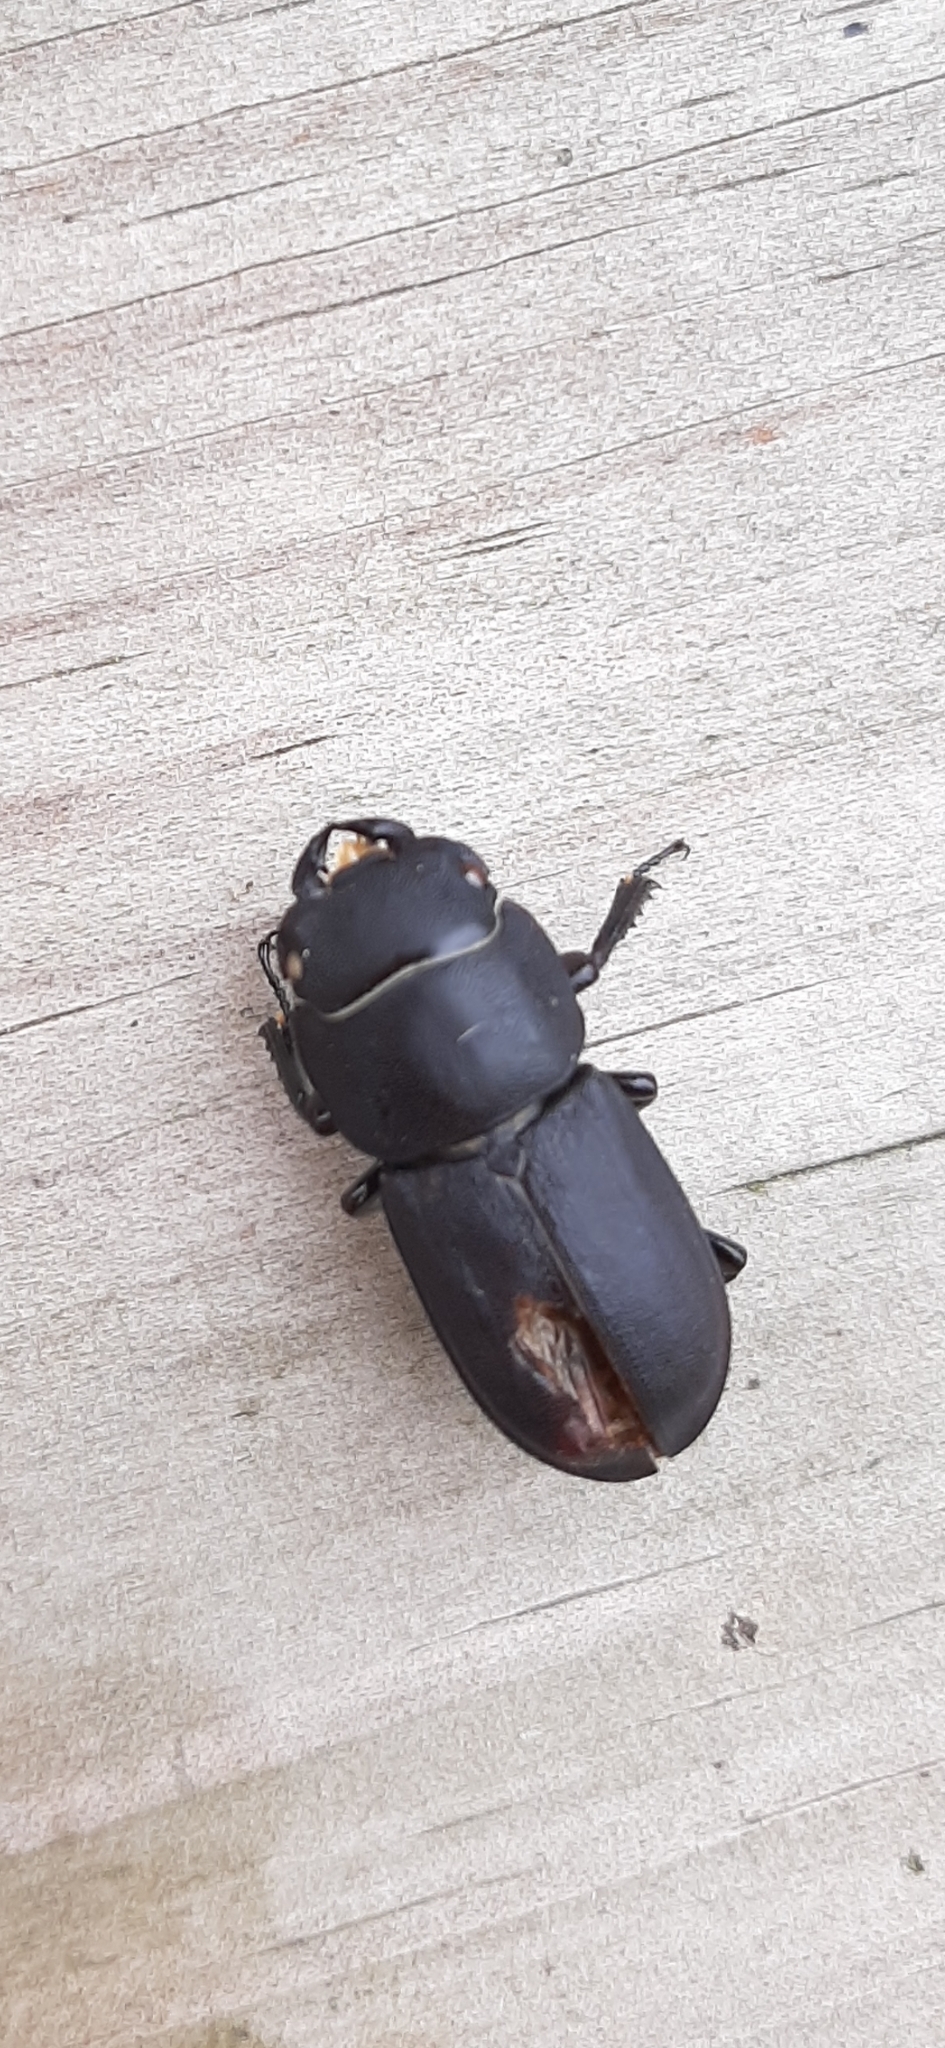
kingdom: Animalia
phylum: Arthropoda
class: Insecta
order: Coleoptera
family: Lucanidae
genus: Dorcus
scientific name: Dorcus parallelipipedus
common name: Lesser stag beetle
